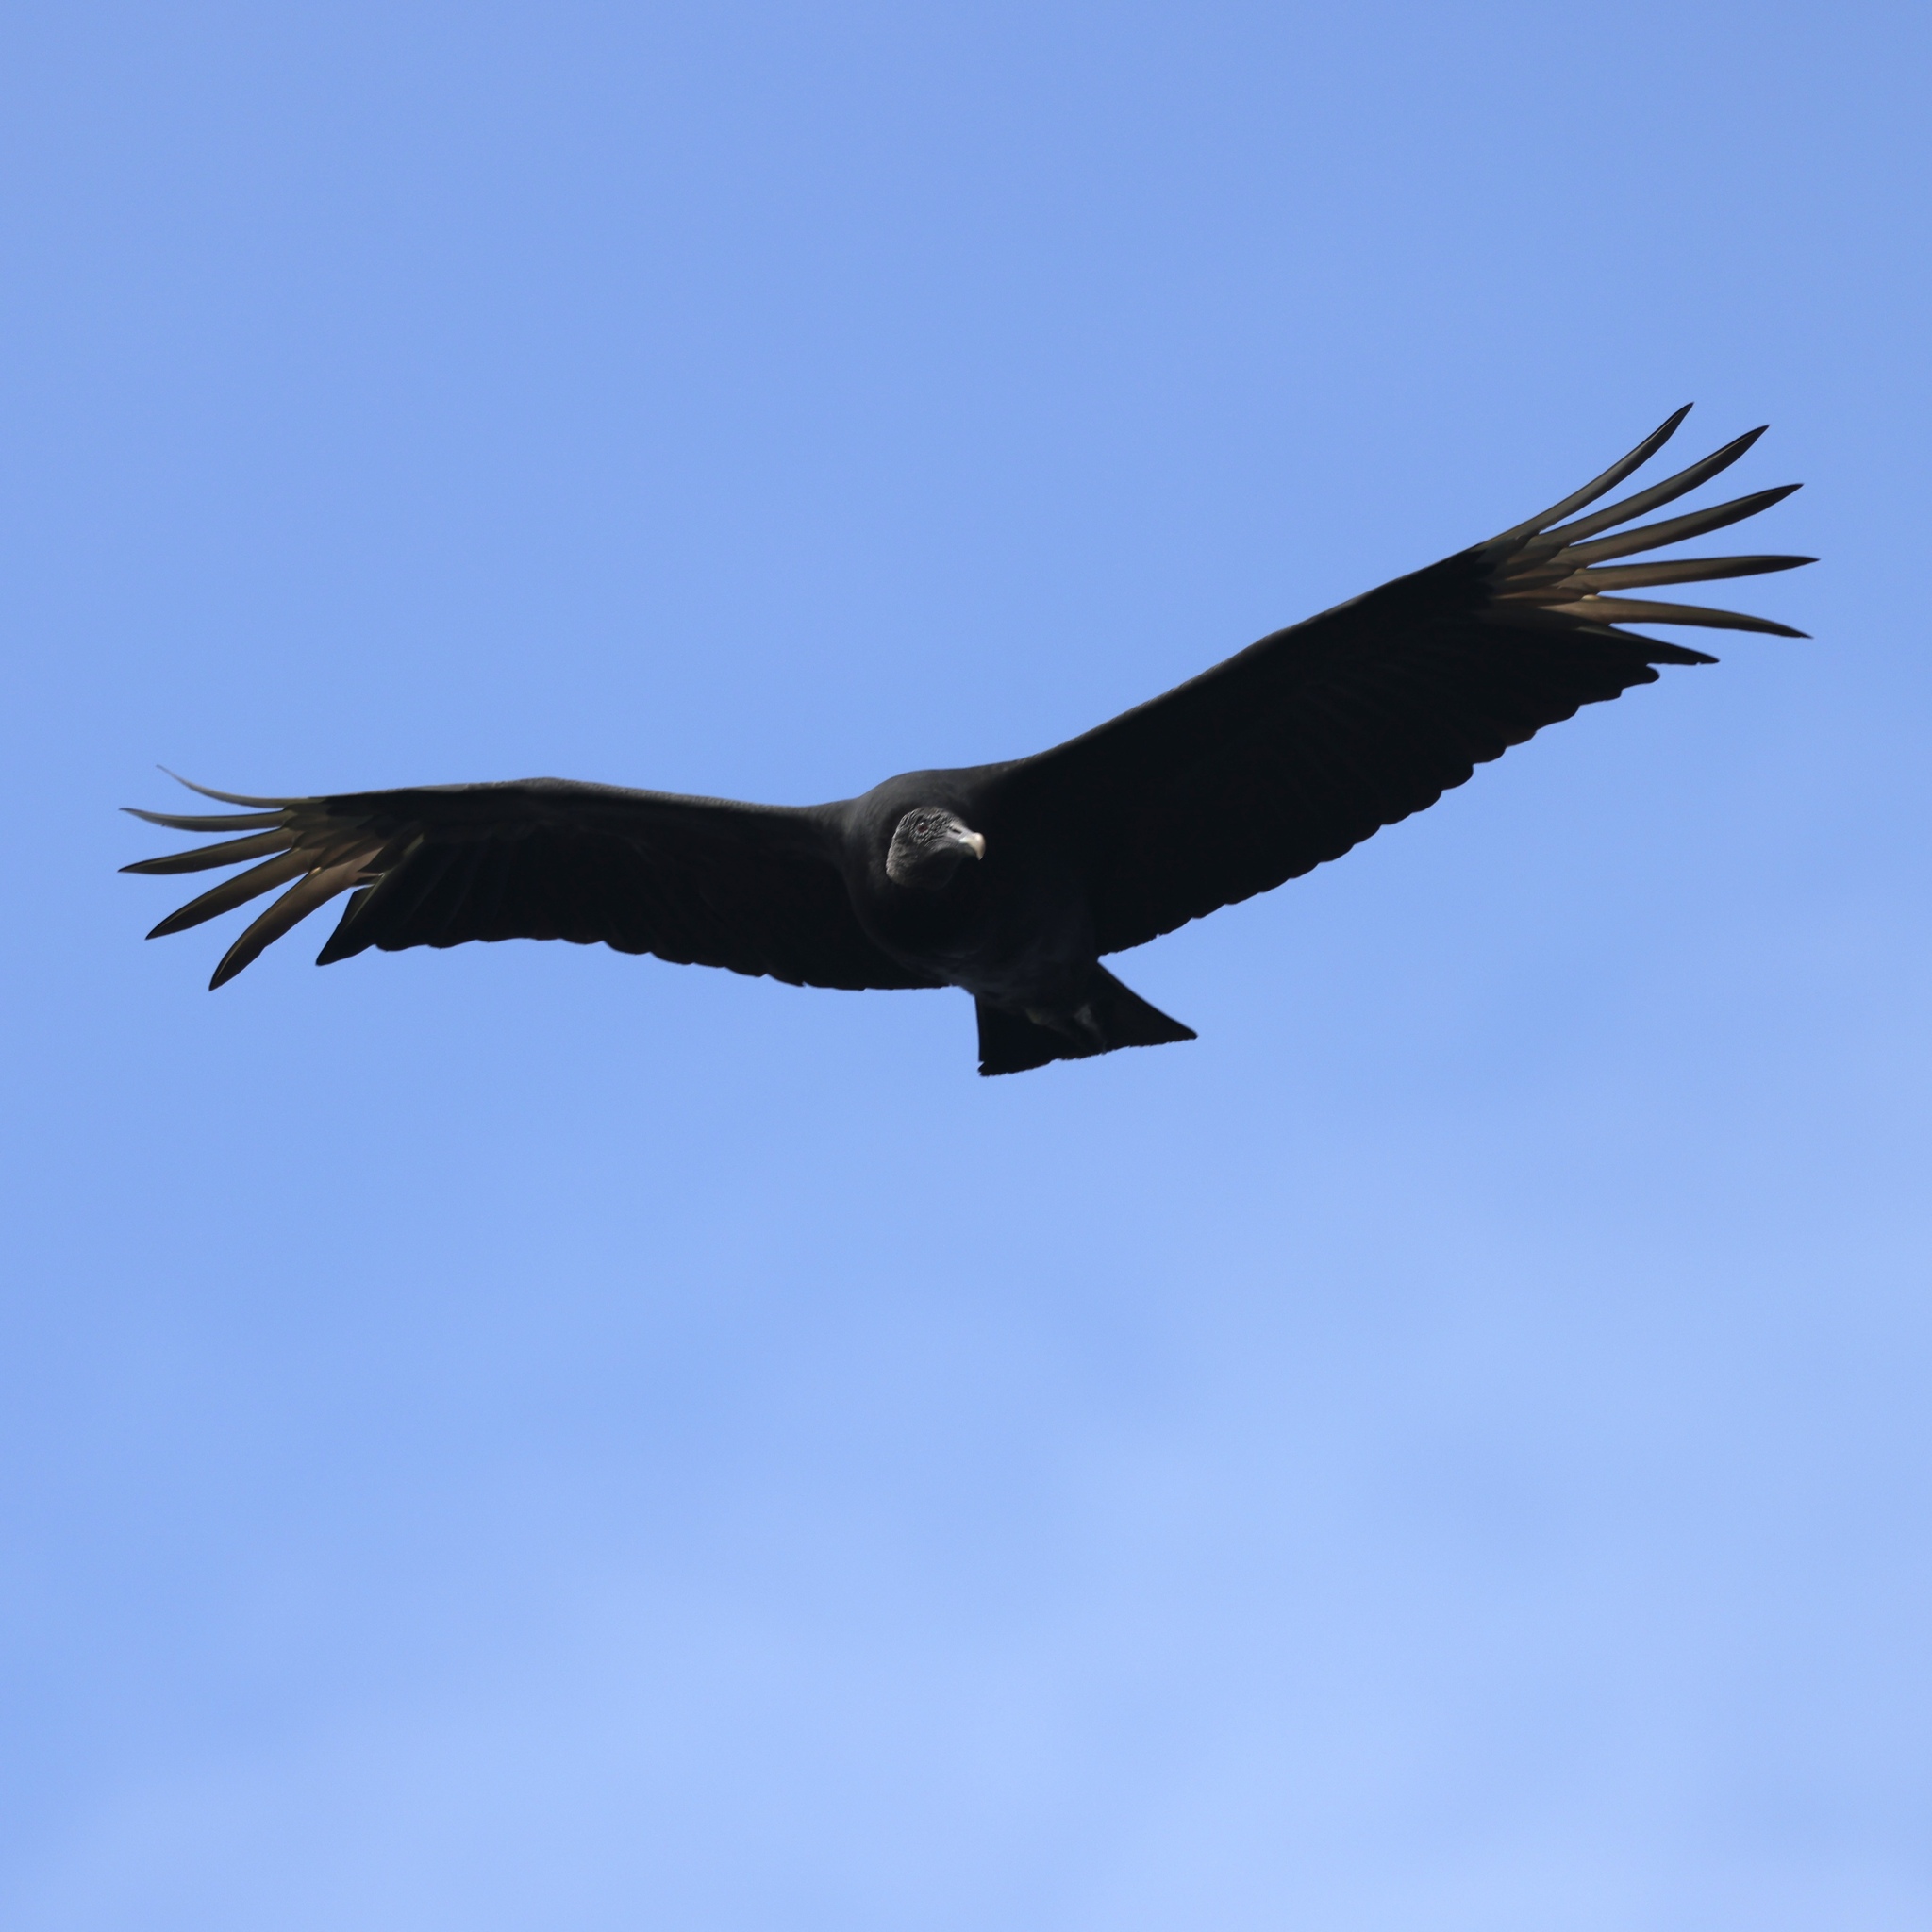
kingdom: Animalia
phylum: Chordata
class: Aves
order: Accipitriformes
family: Cathartidae
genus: Coragyps
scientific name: Coragyps atratus
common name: Black vulture
